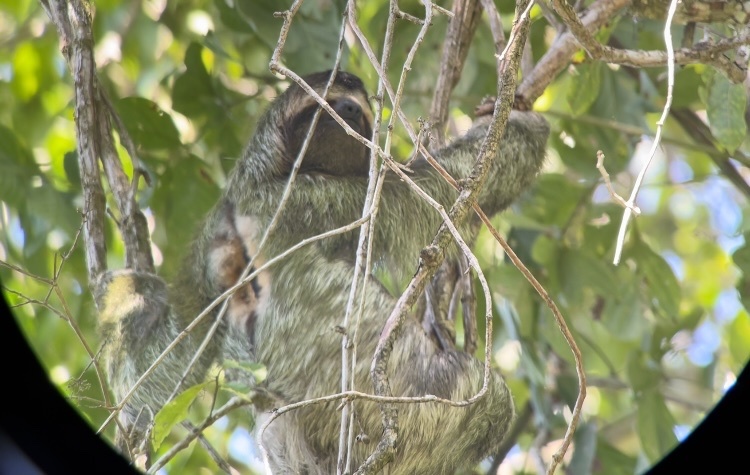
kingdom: Animalia
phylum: Chordata
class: Mammalia
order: Pilosa
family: Bradypodidae
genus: Bradypus
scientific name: Bradypus variegatus
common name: Brown-throated three-toed sloth
